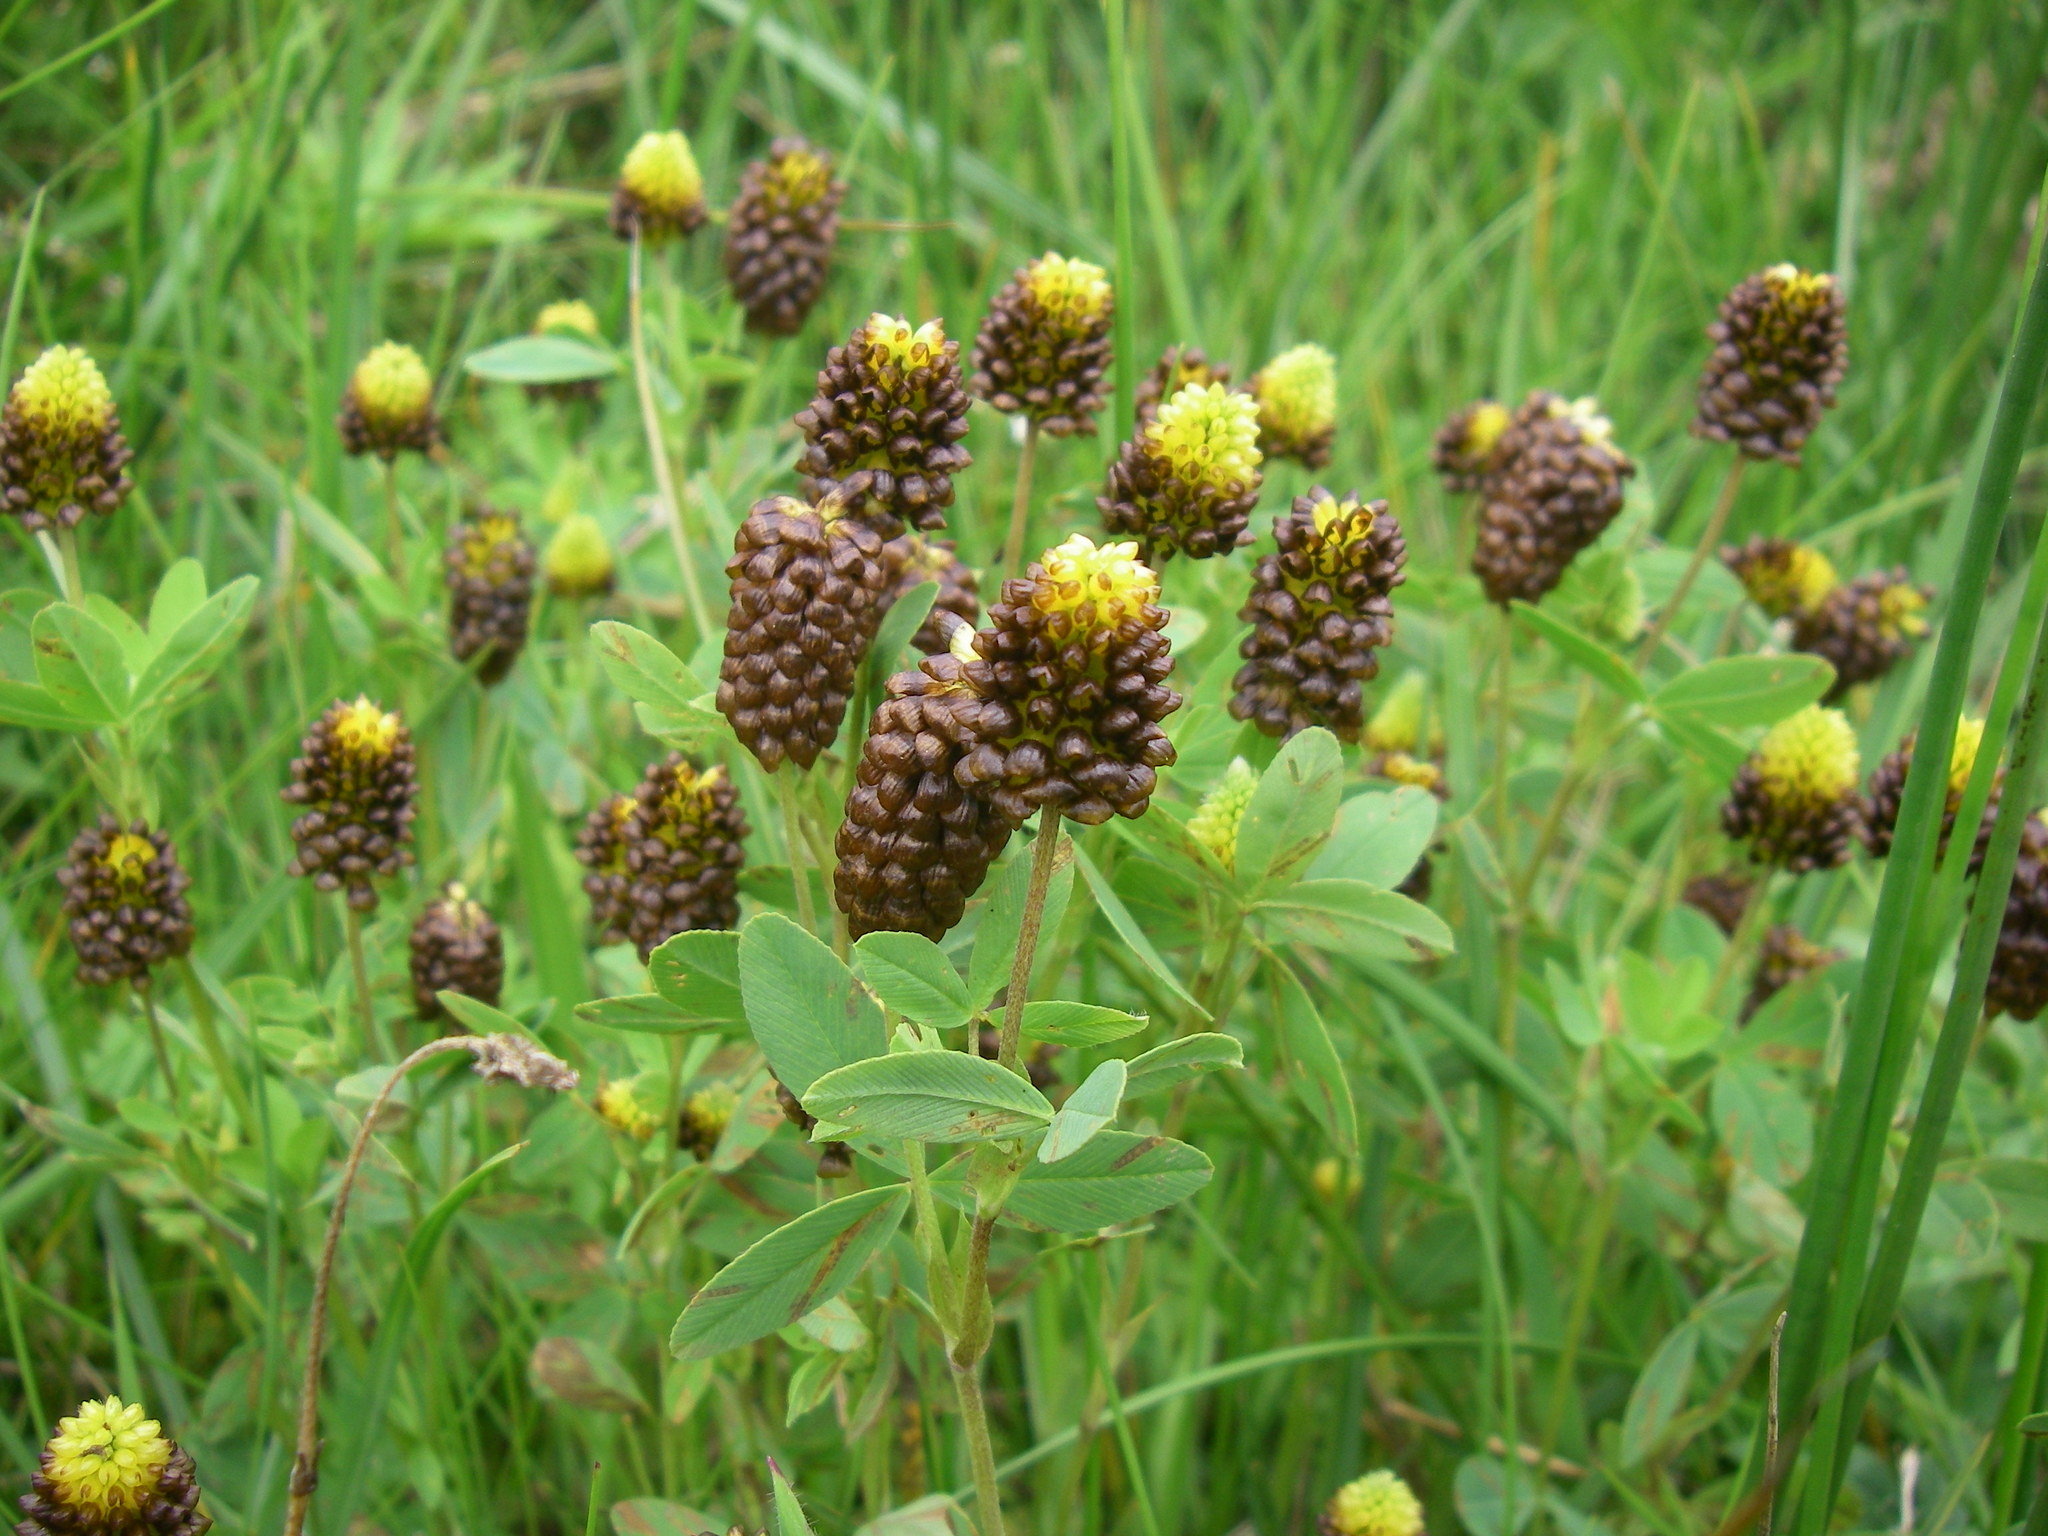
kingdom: Plantae
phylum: Tracheophyta
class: Magnoliopsida
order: Fabales
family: Fabaceae
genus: Trifolium
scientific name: Trifolium spadiceum
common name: Brown moor clover
